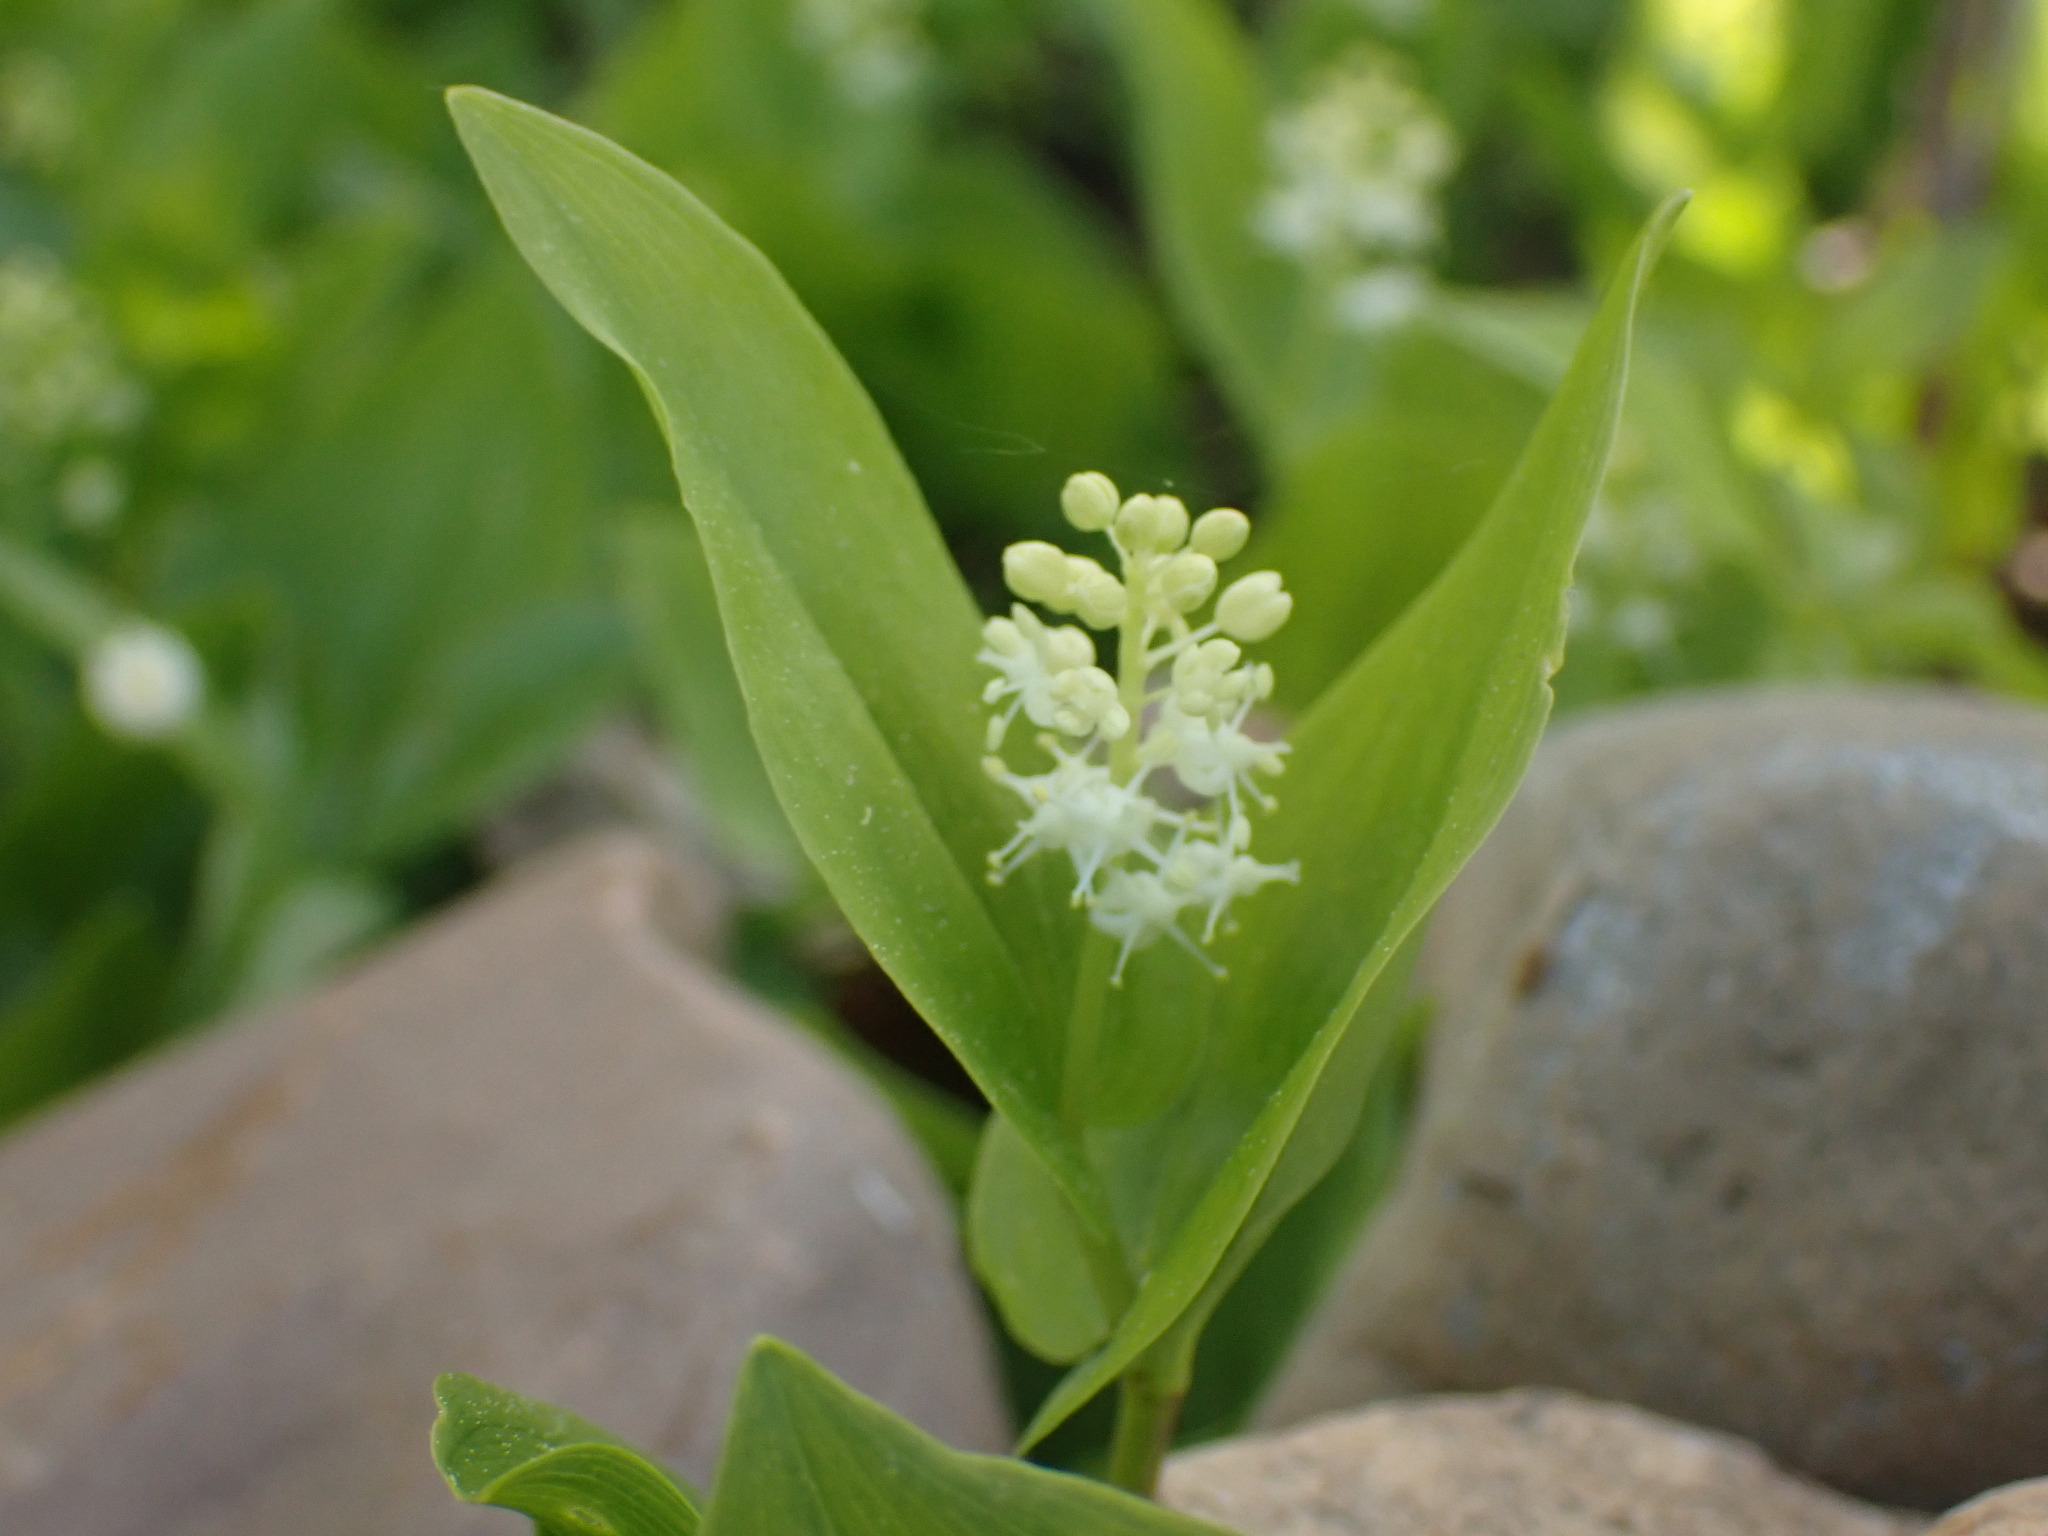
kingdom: Plantae
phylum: Tracheophyta
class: Liliopsida
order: Asparagales
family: Asparagaceae
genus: Maianthemum
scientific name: Maianthemum canadense
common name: False lily-of-the-valley
